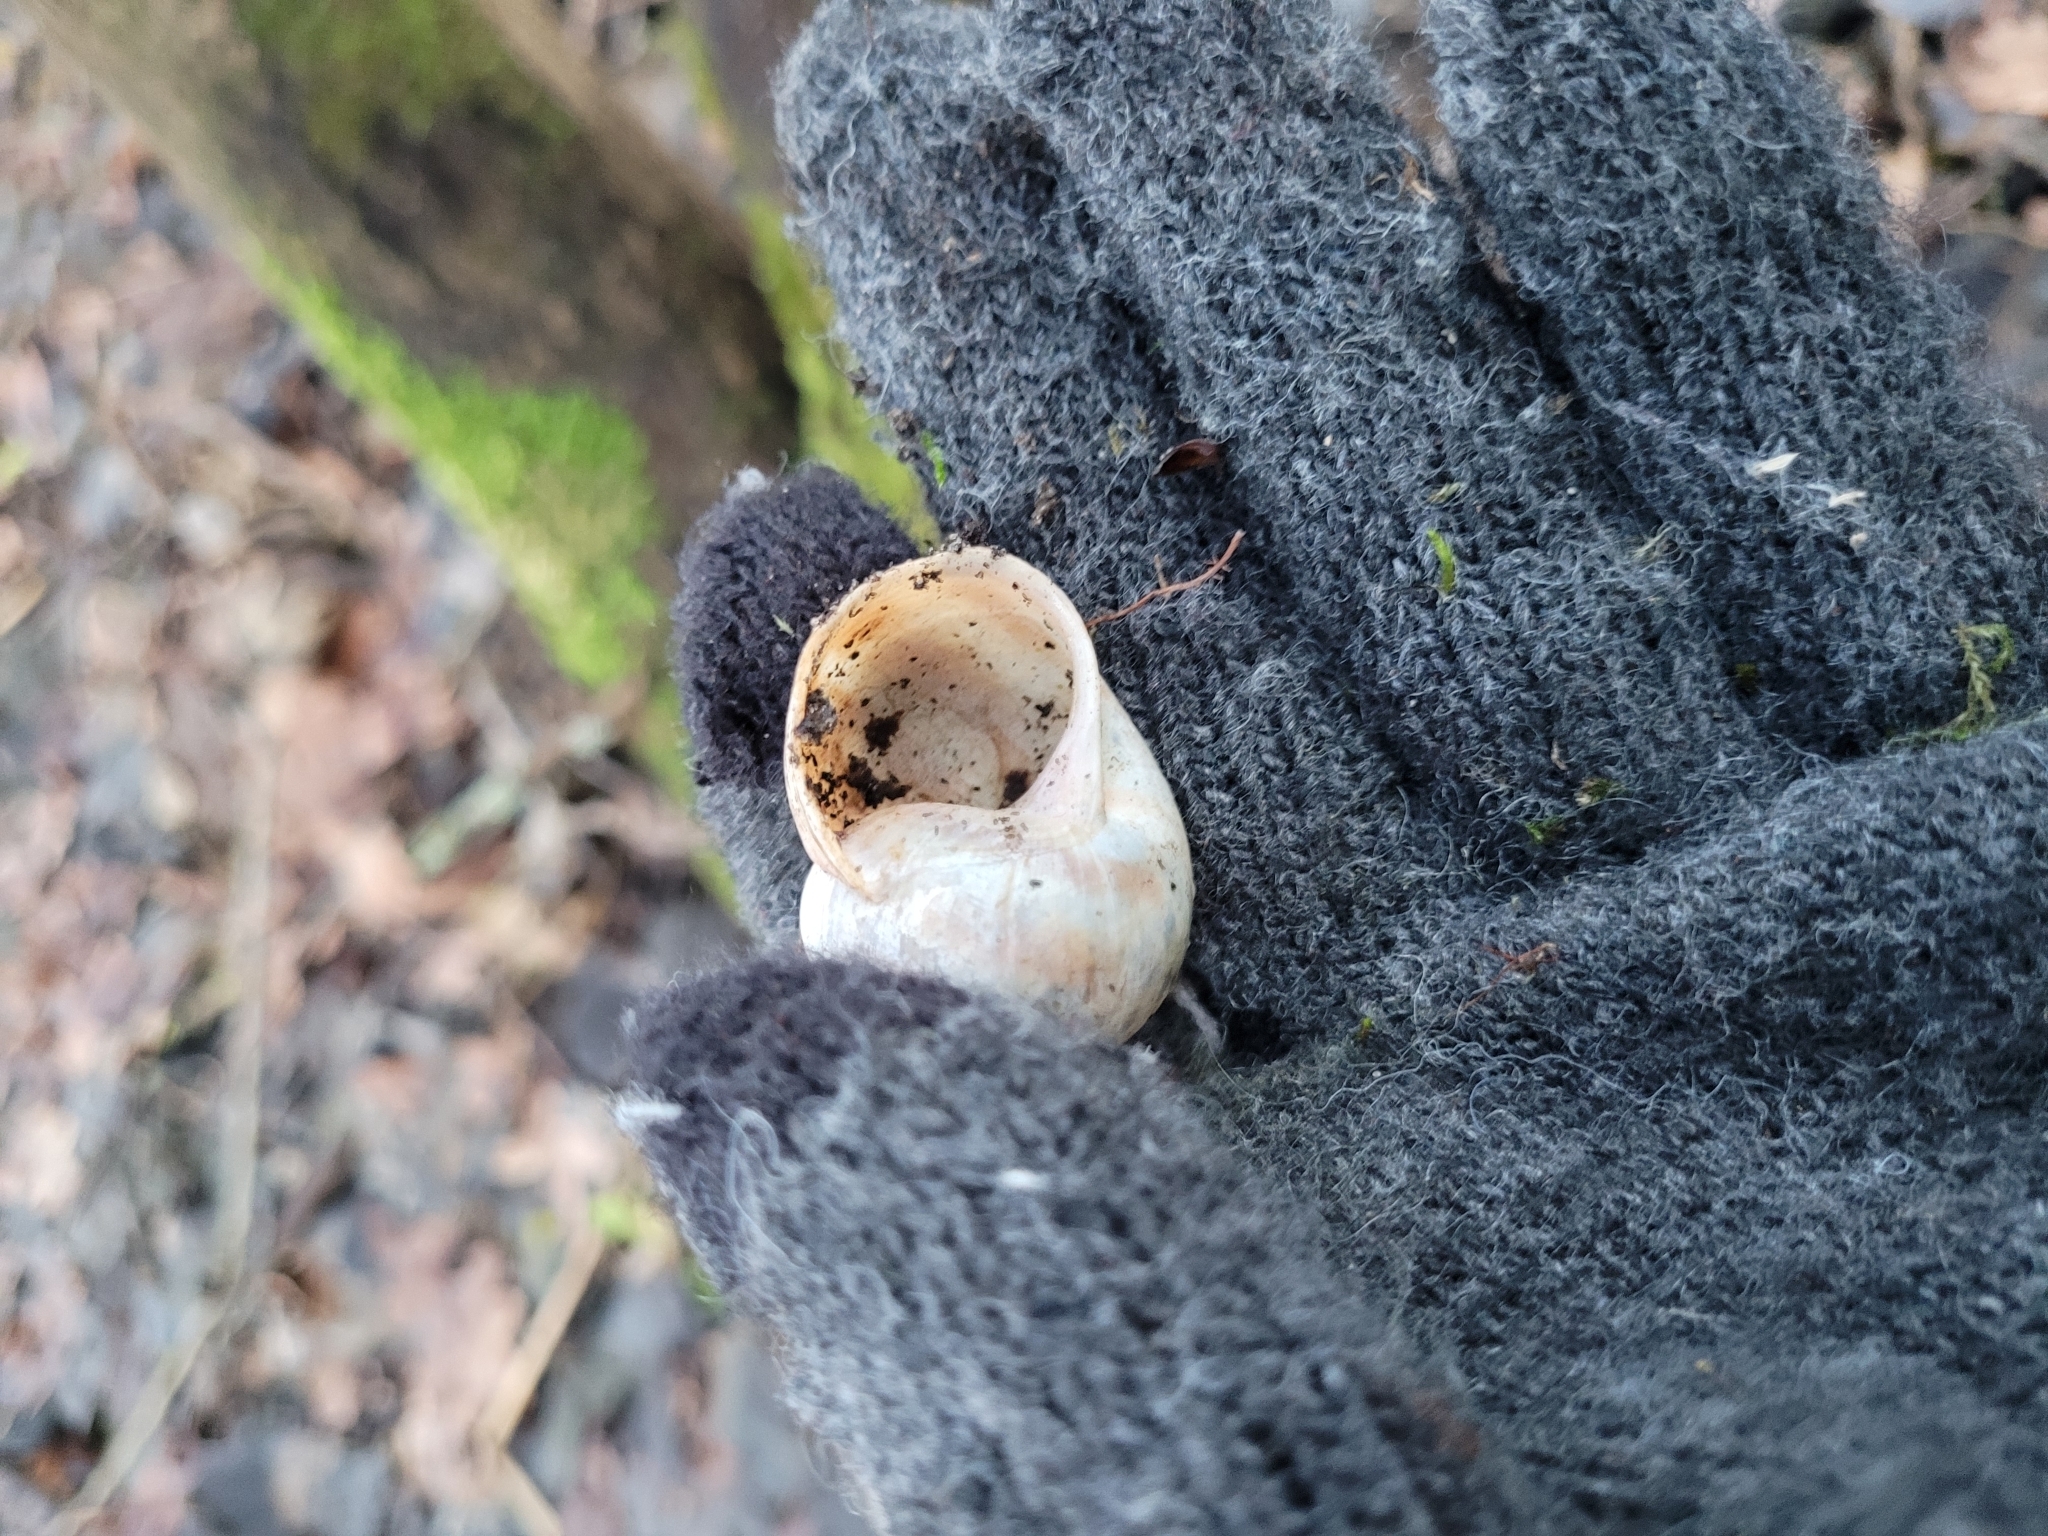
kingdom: Animalia
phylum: Mollusca
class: Gastropoda
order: Stylommatophora
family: Helicidae
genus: Helix
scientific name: Helix pomatia
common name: Roman snail
